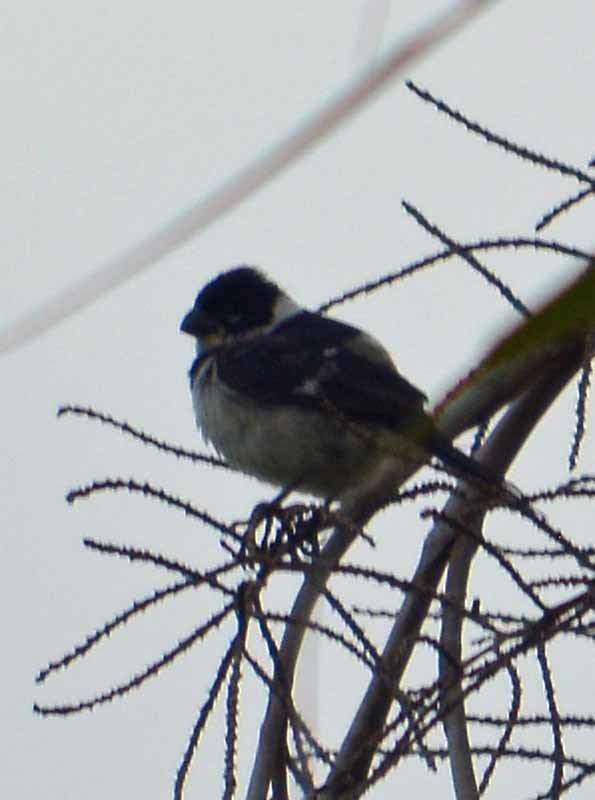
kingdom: Animalia
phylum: Chordata
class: Aves
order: Passeriformes
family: Thraupidae
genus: Sporophila
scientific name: Sporophila morelleti
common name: Morelet's seedeater
